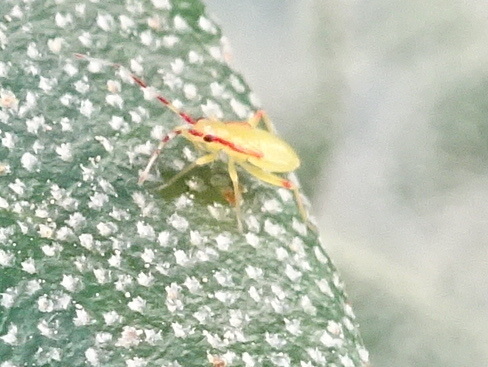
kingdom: Animalia
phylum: Arthropoda
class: Insecta
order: Hemiptera
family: Miridae
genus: Campyloneura
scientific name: Campyloneura virgula
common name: Predatory bug
